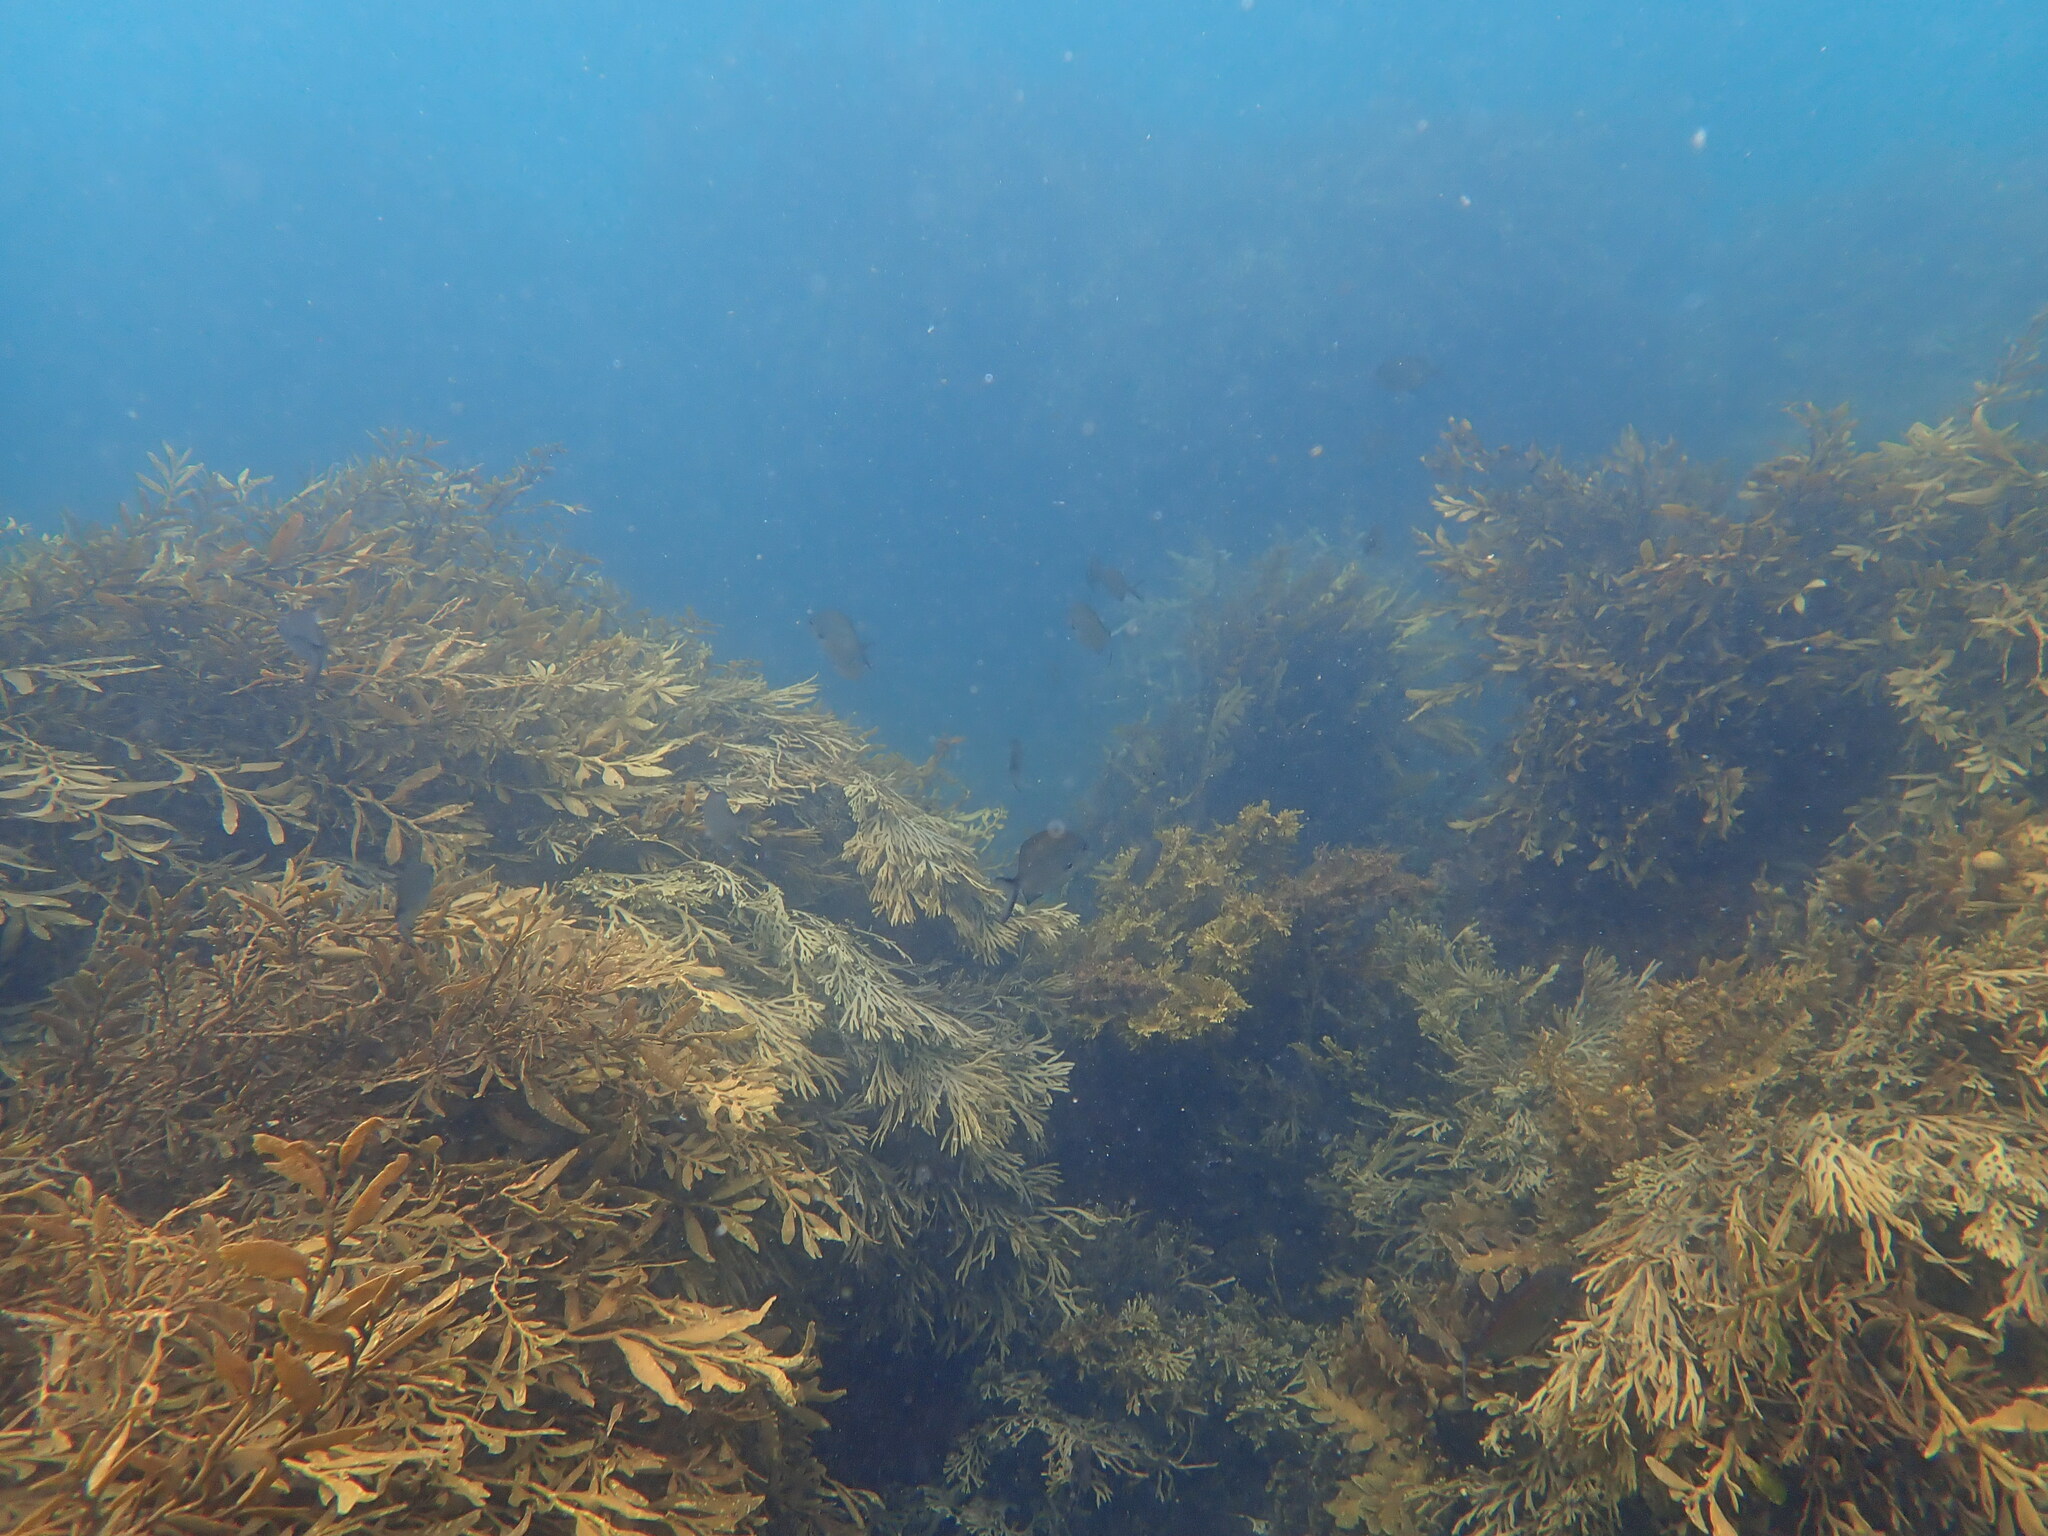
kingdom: Animalia
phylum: Chordata
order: Perciformes
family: Kyphosidae
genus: Scorpis
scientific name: Scorpis lineolata
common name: Sweep
